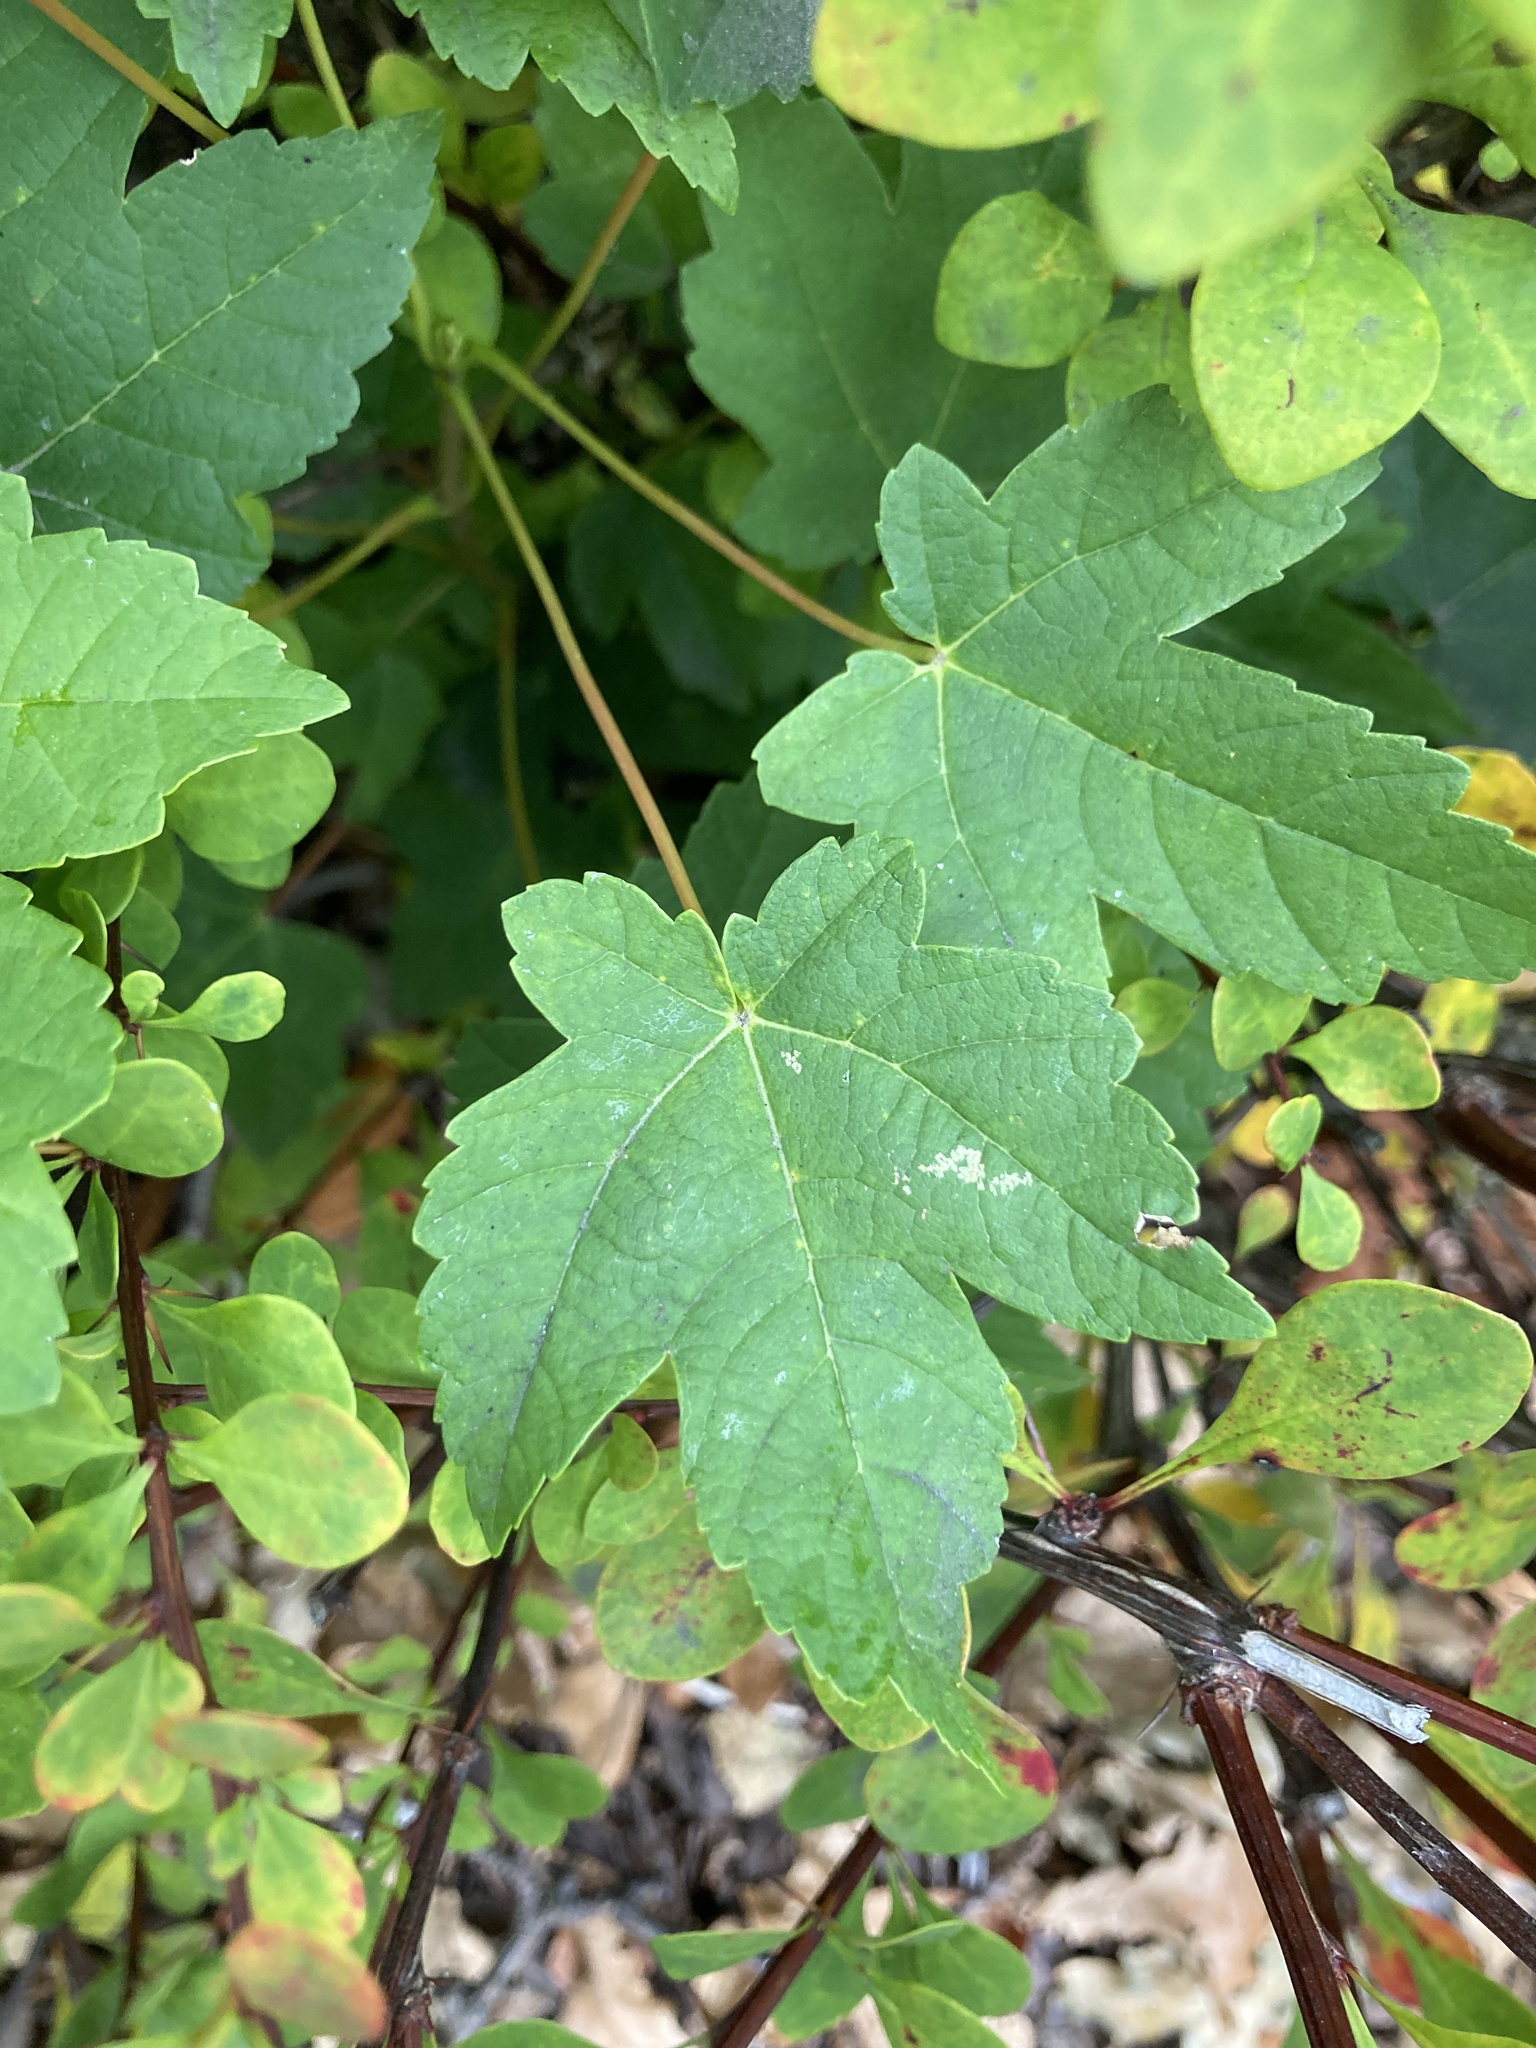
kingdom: Plantae
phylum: Tracheophyta
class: Magnoliopsida
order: Sapindales
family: Sapindaceae
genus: Acer
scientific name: Acer pseudoplatanus
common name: Sycamore
